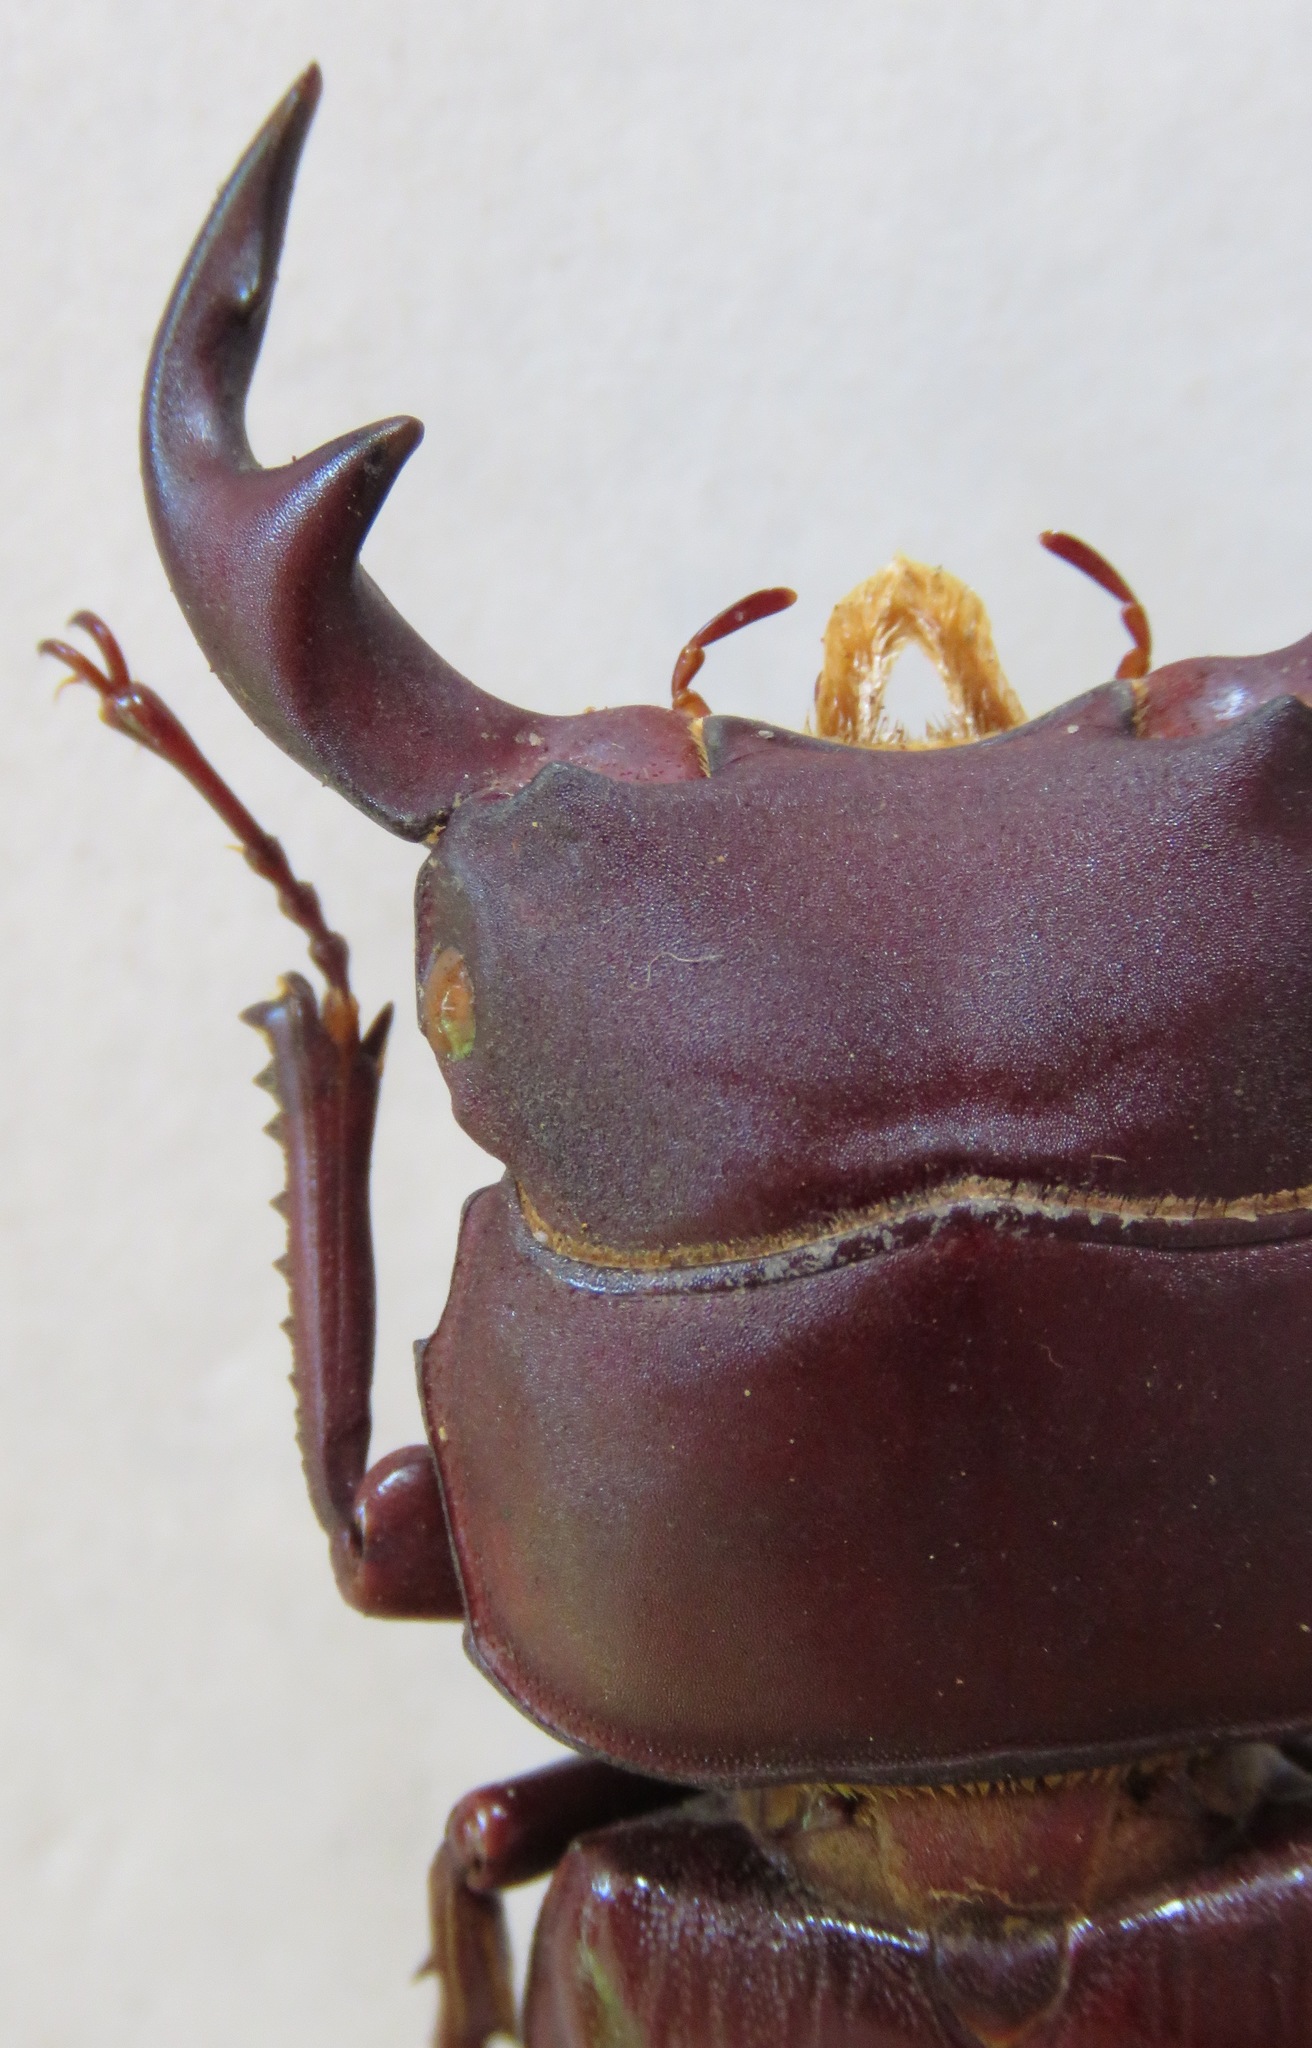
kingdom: Animalia
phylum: Arthropoda
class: Insecta
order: Coleoptera
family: Lucanidae
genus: Dorcus
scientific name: Dorcus grandis
